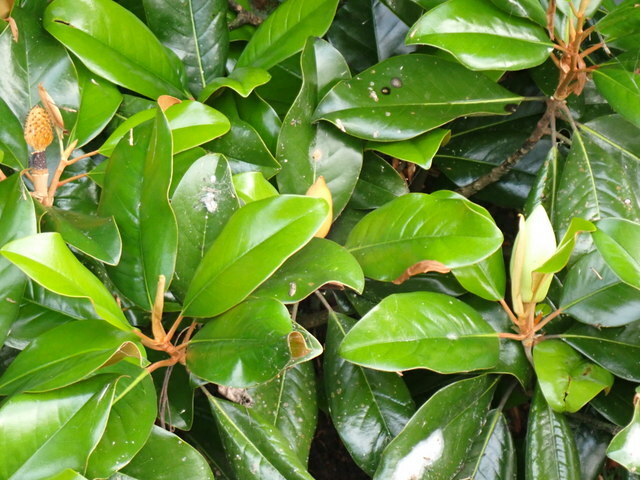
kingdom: Plantae
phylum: Tracheophyta
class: Magnoliopsida
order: Magnoliales
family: Magnoliaceae
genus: Magnolia
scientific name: Magnolia grandiflora
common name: Southern magnolia
